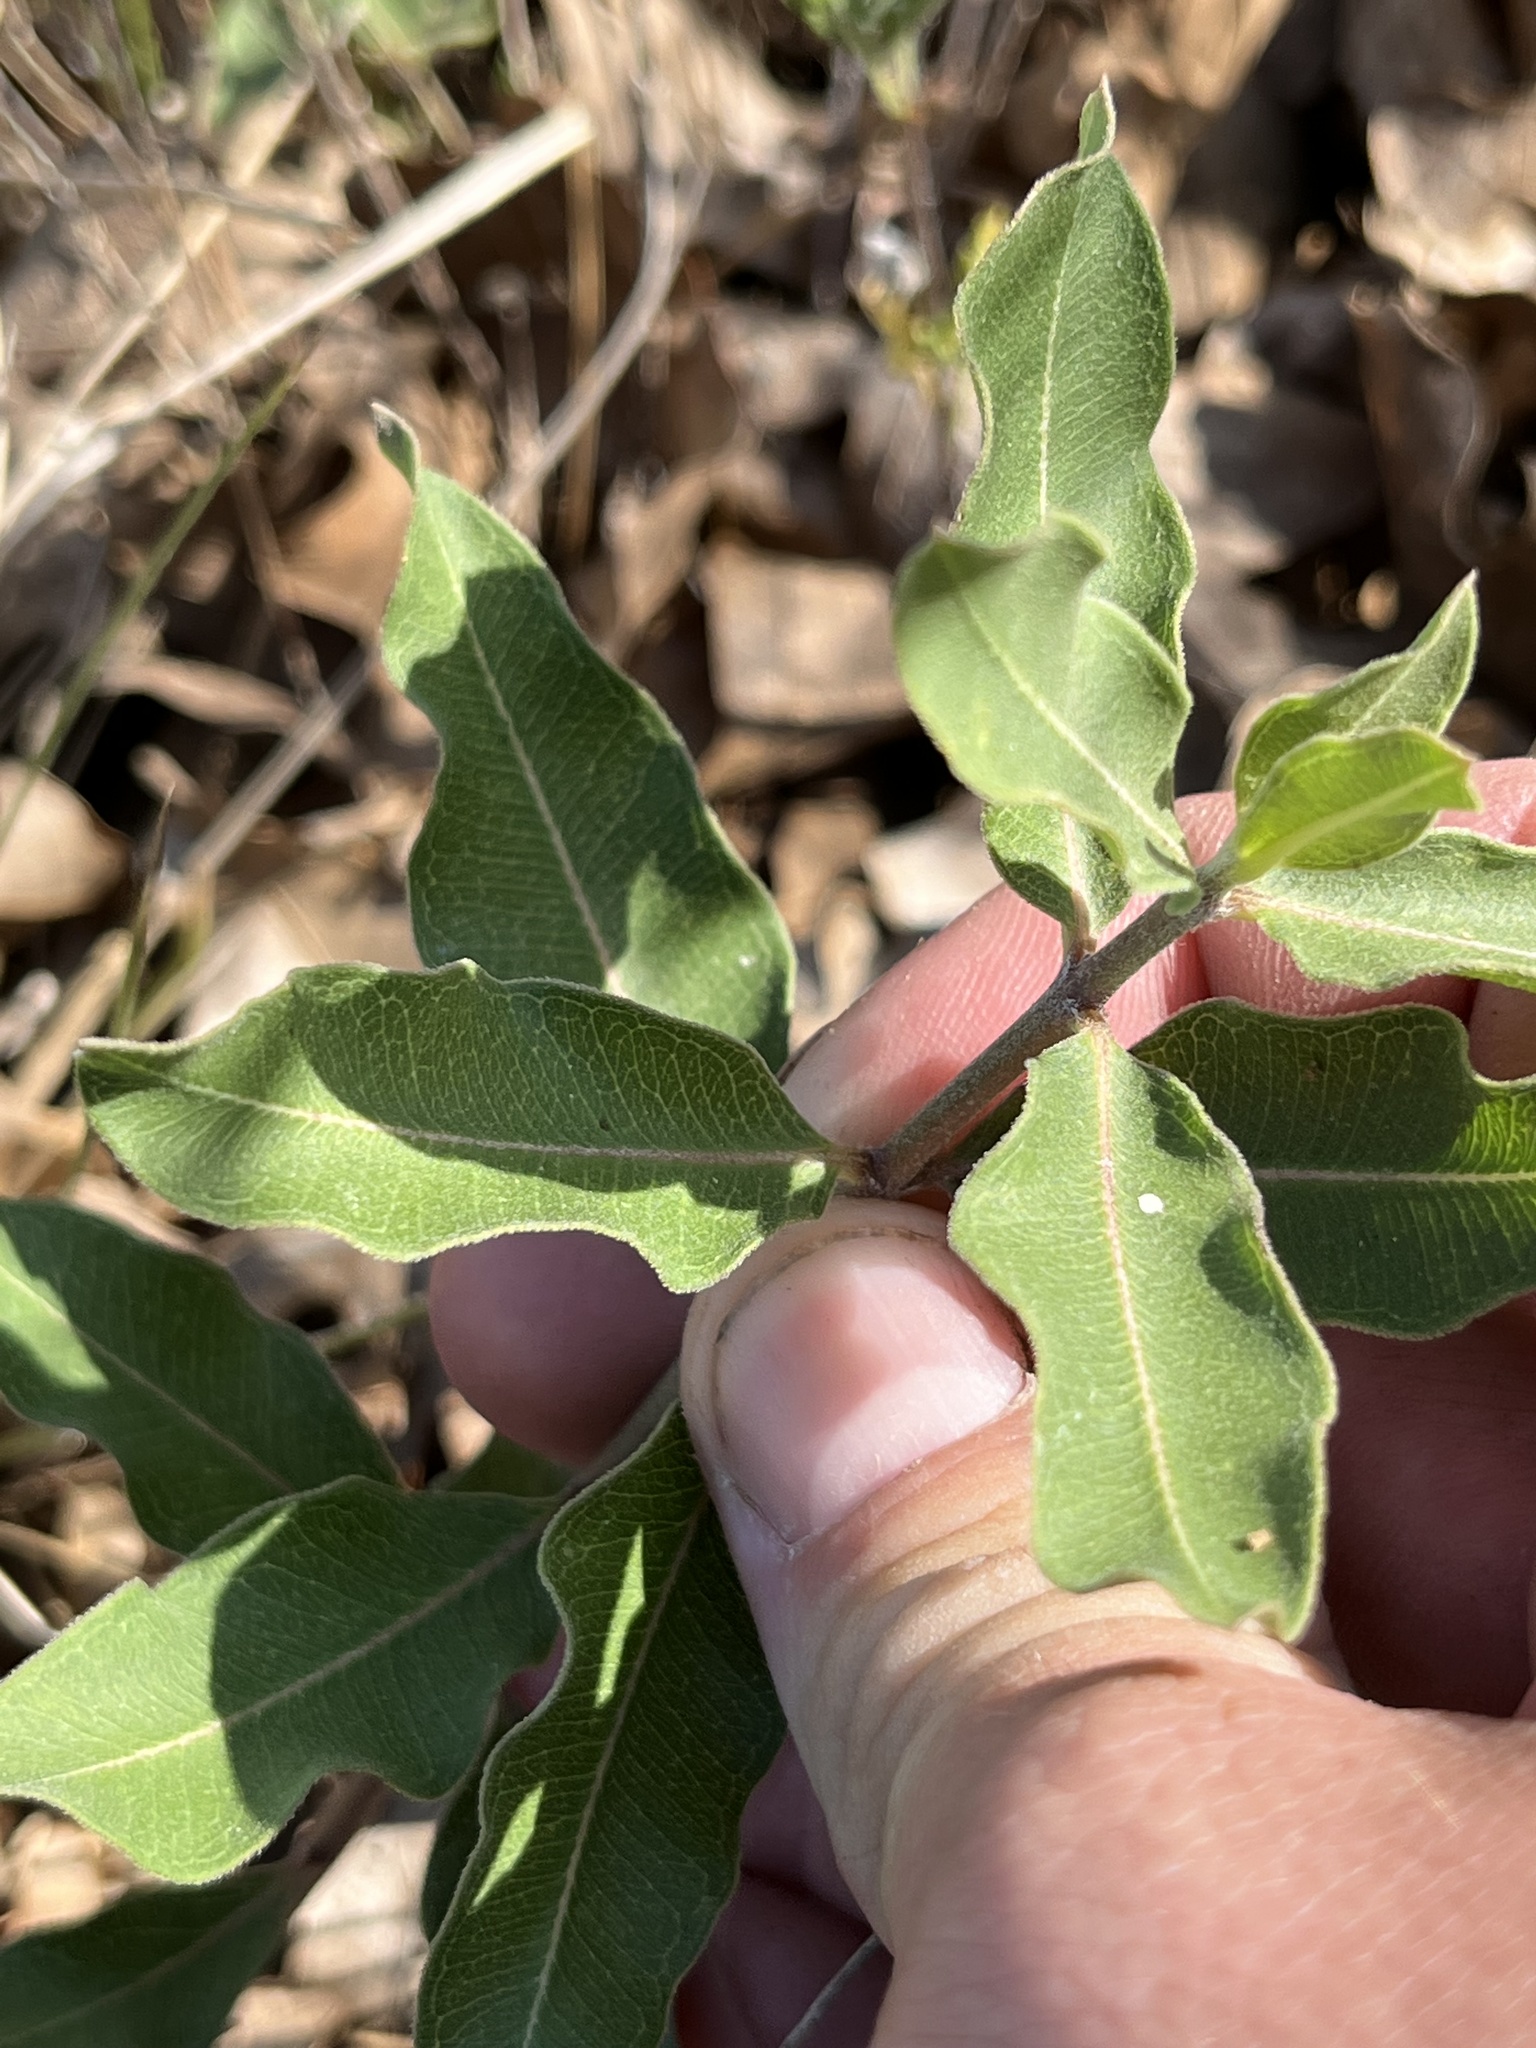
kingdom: Plantae
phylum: Tracheophyta
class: Magnoliopsida
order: Gentianales
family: Apocynaceae
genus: Asclepias
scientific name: Asclepias viridiflora
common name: Green comet milkweed
